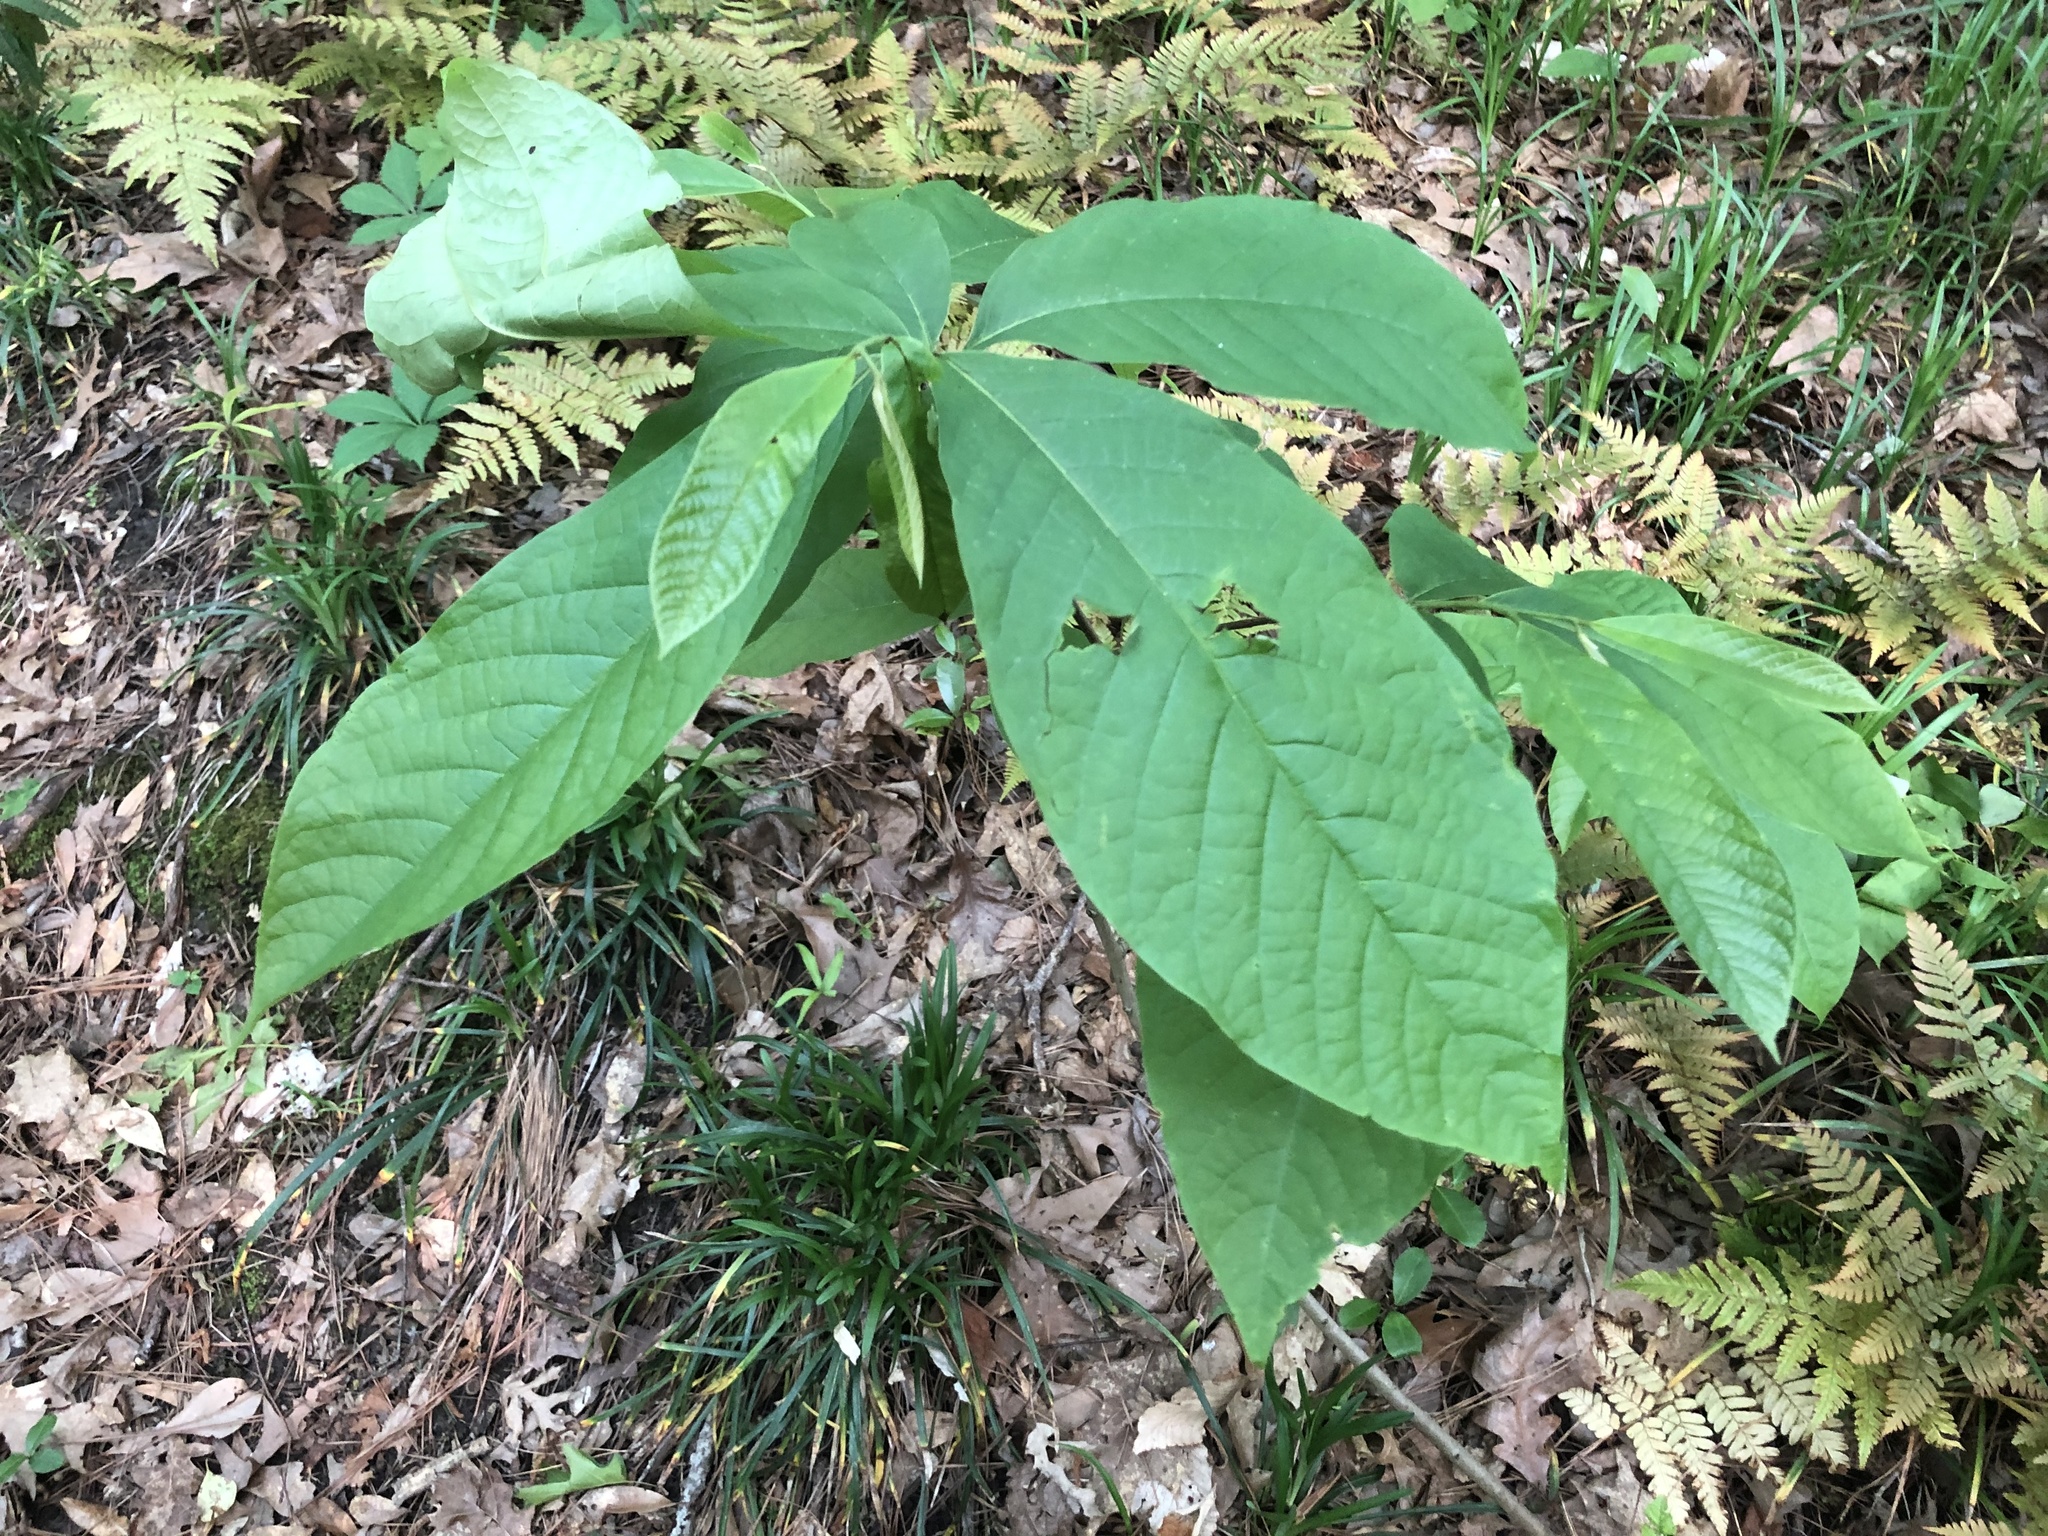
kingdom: Plantae
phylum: Tracheophyta
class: Magnoliopsida
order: Magnoliales
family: Annonaceae
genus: Asimina
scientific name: Asimina triloba
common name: Dog-banana
